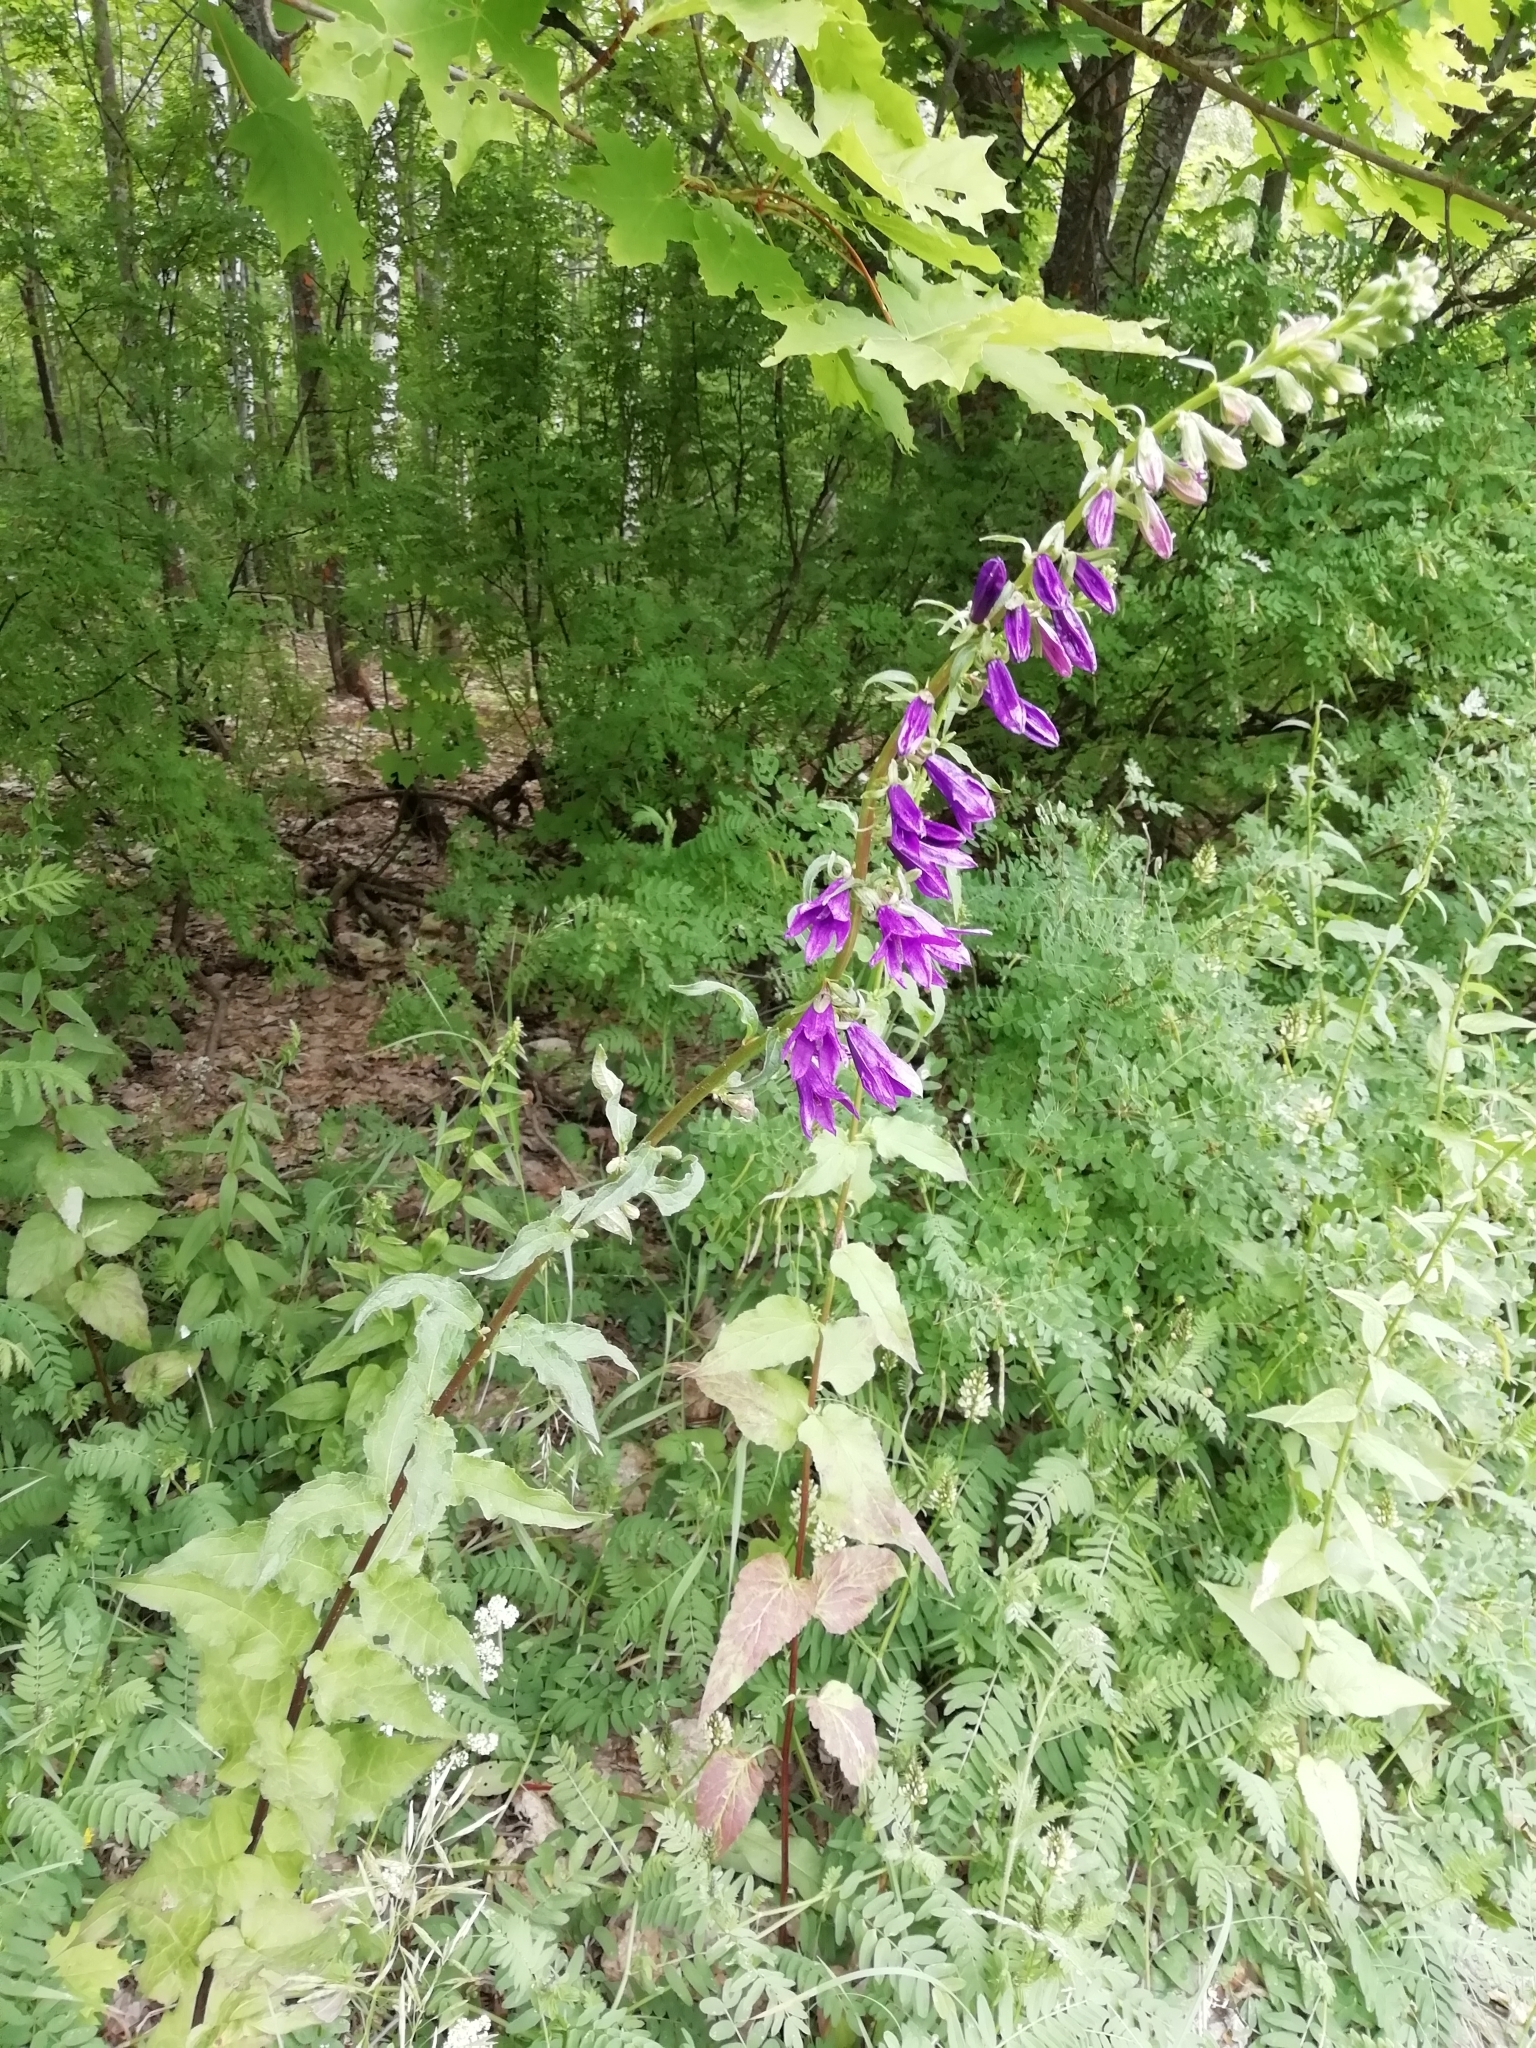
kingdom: Plantae
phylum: Tracheophyta
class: Magnoliopsida
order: Asterales
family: Campanulaceae
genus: Campanula
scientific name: Campanula rapunculoides
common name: Creeping bellflower
